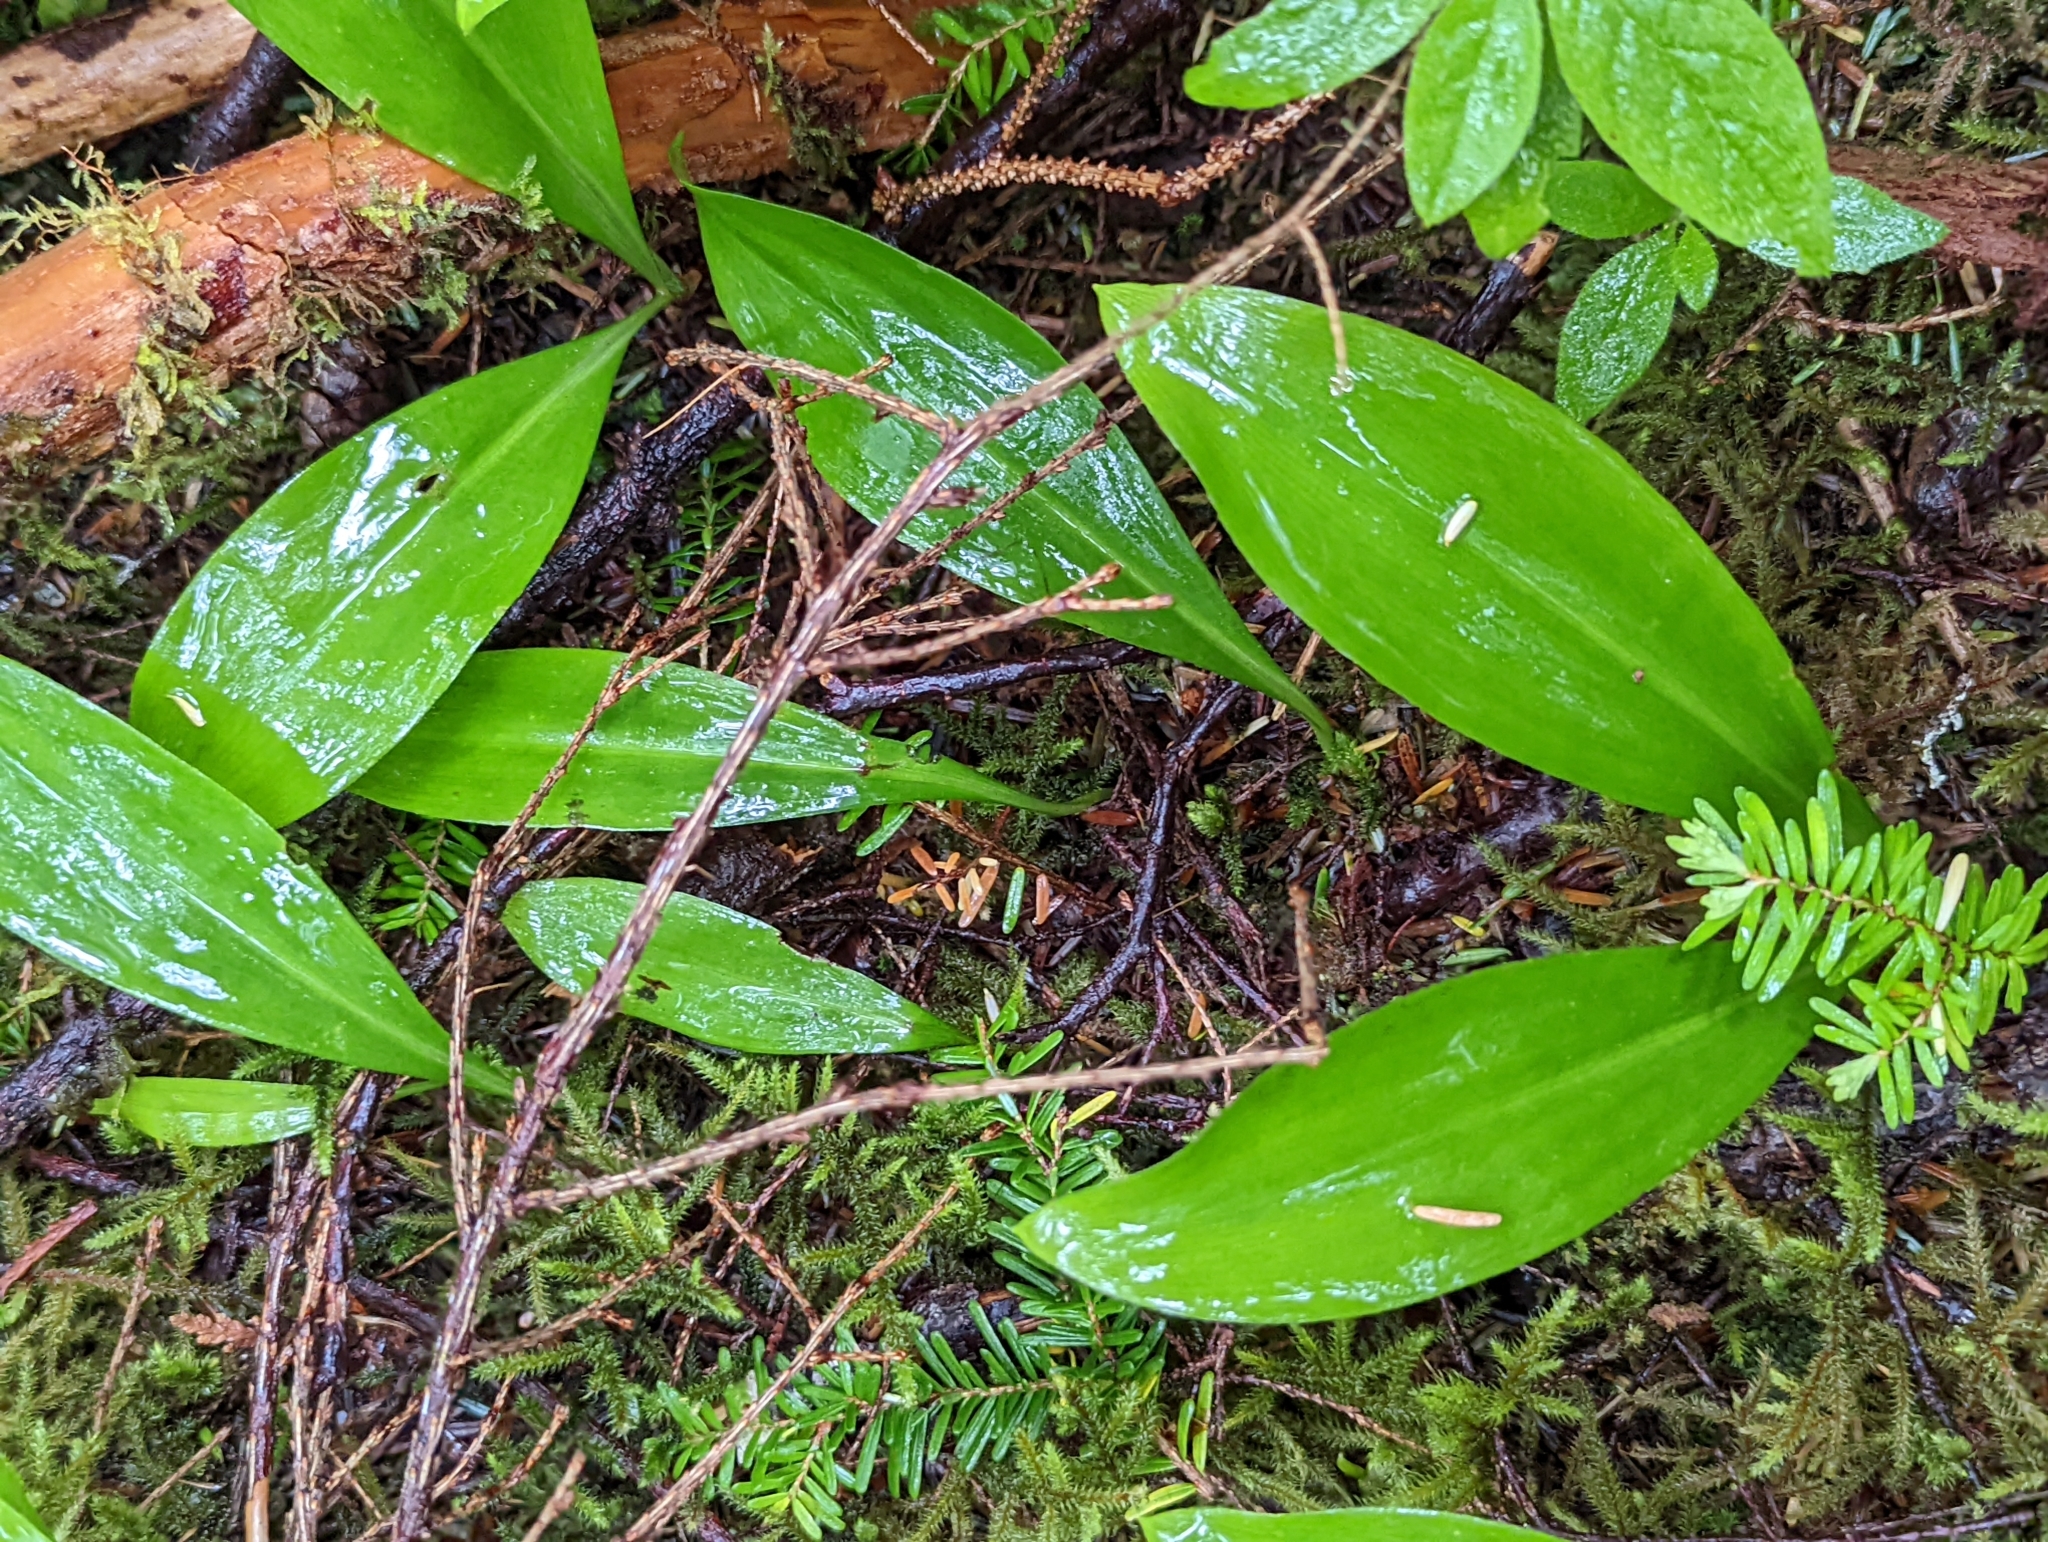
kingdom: Plantae
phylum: Tracheophyta
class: Liliopsida
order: Liliales
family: Liliaceae
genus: Clintonia
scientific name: Clintonia uniflora
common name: Queen's cup
